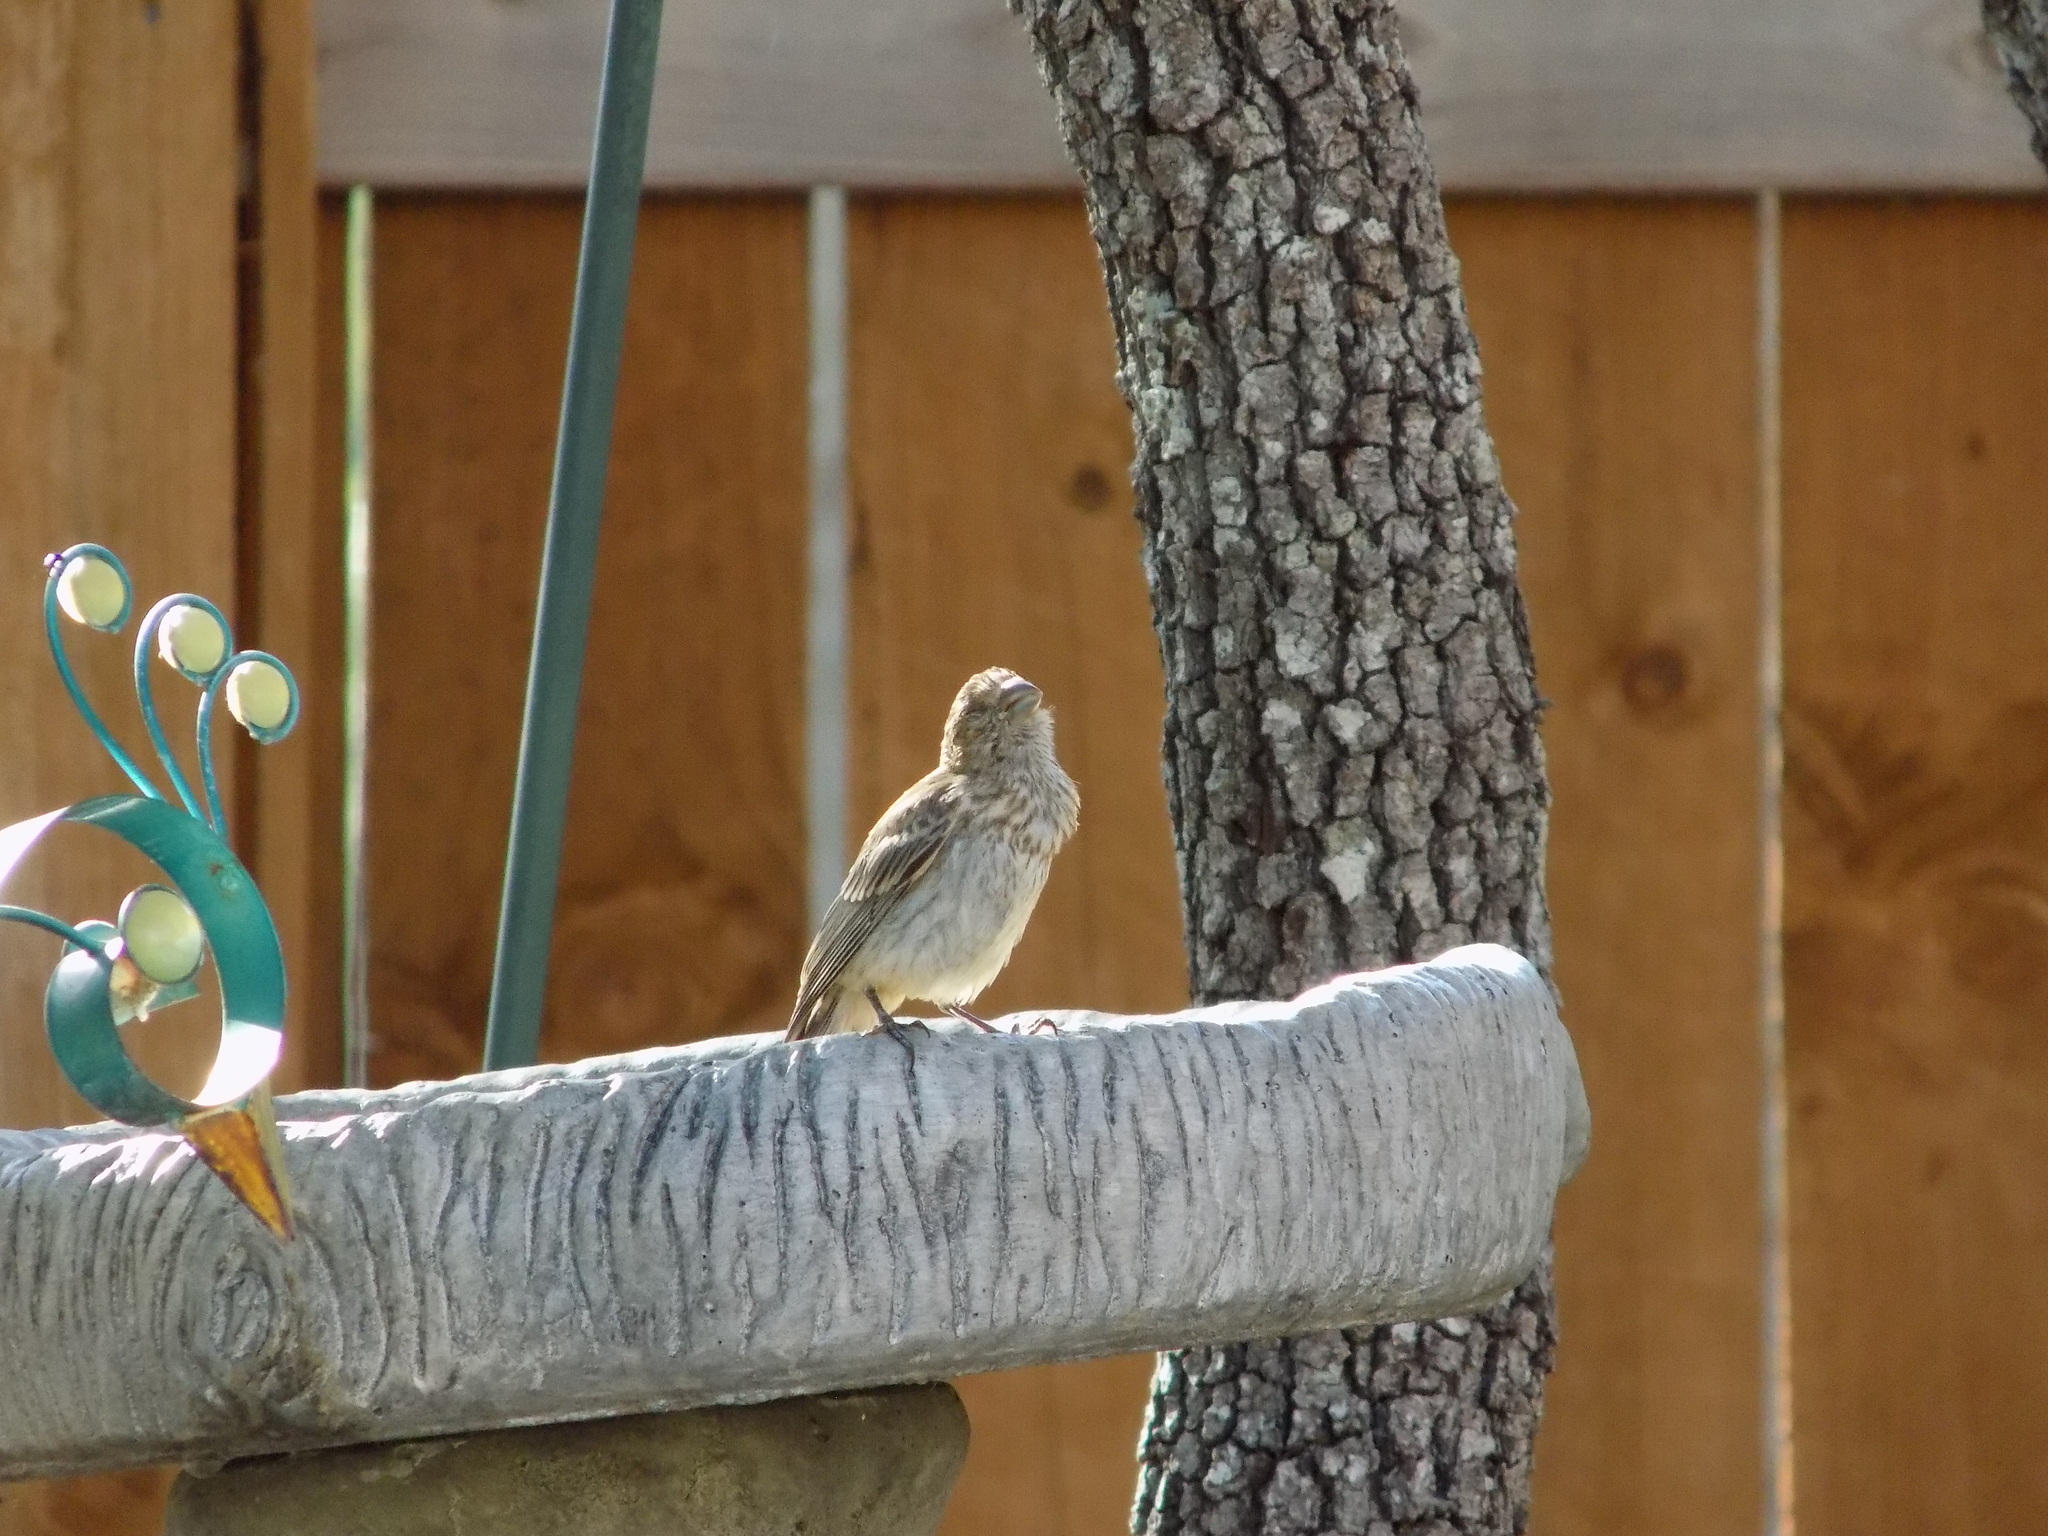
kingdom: Animalia
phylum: Chordata
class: Aves
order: Passeriformes
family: Fringillidae
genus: Haemorhous
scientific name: Haemorhous mexicanus
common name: House finch
